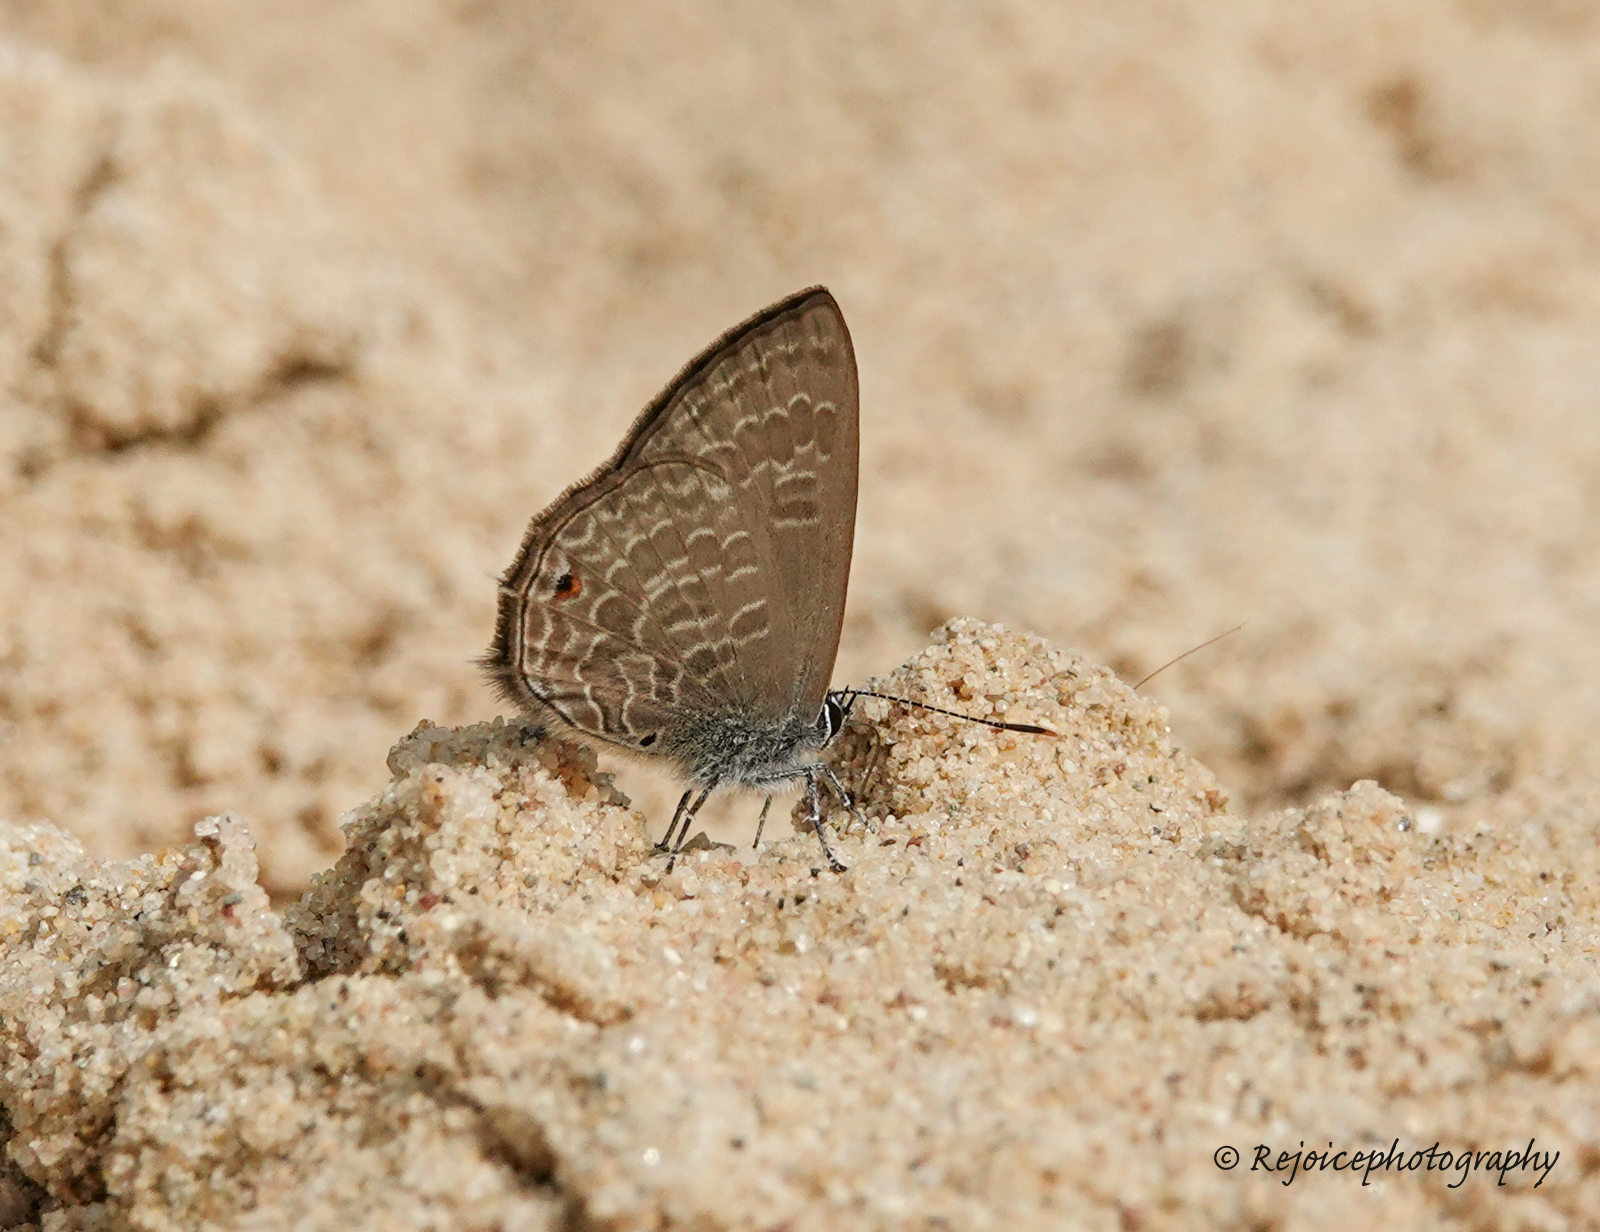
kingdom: Animalia
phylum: Arthropoda
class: Insecta
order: Lepidoptera
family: Lycaenidae
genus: Anthene
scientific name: Anthene emolus
